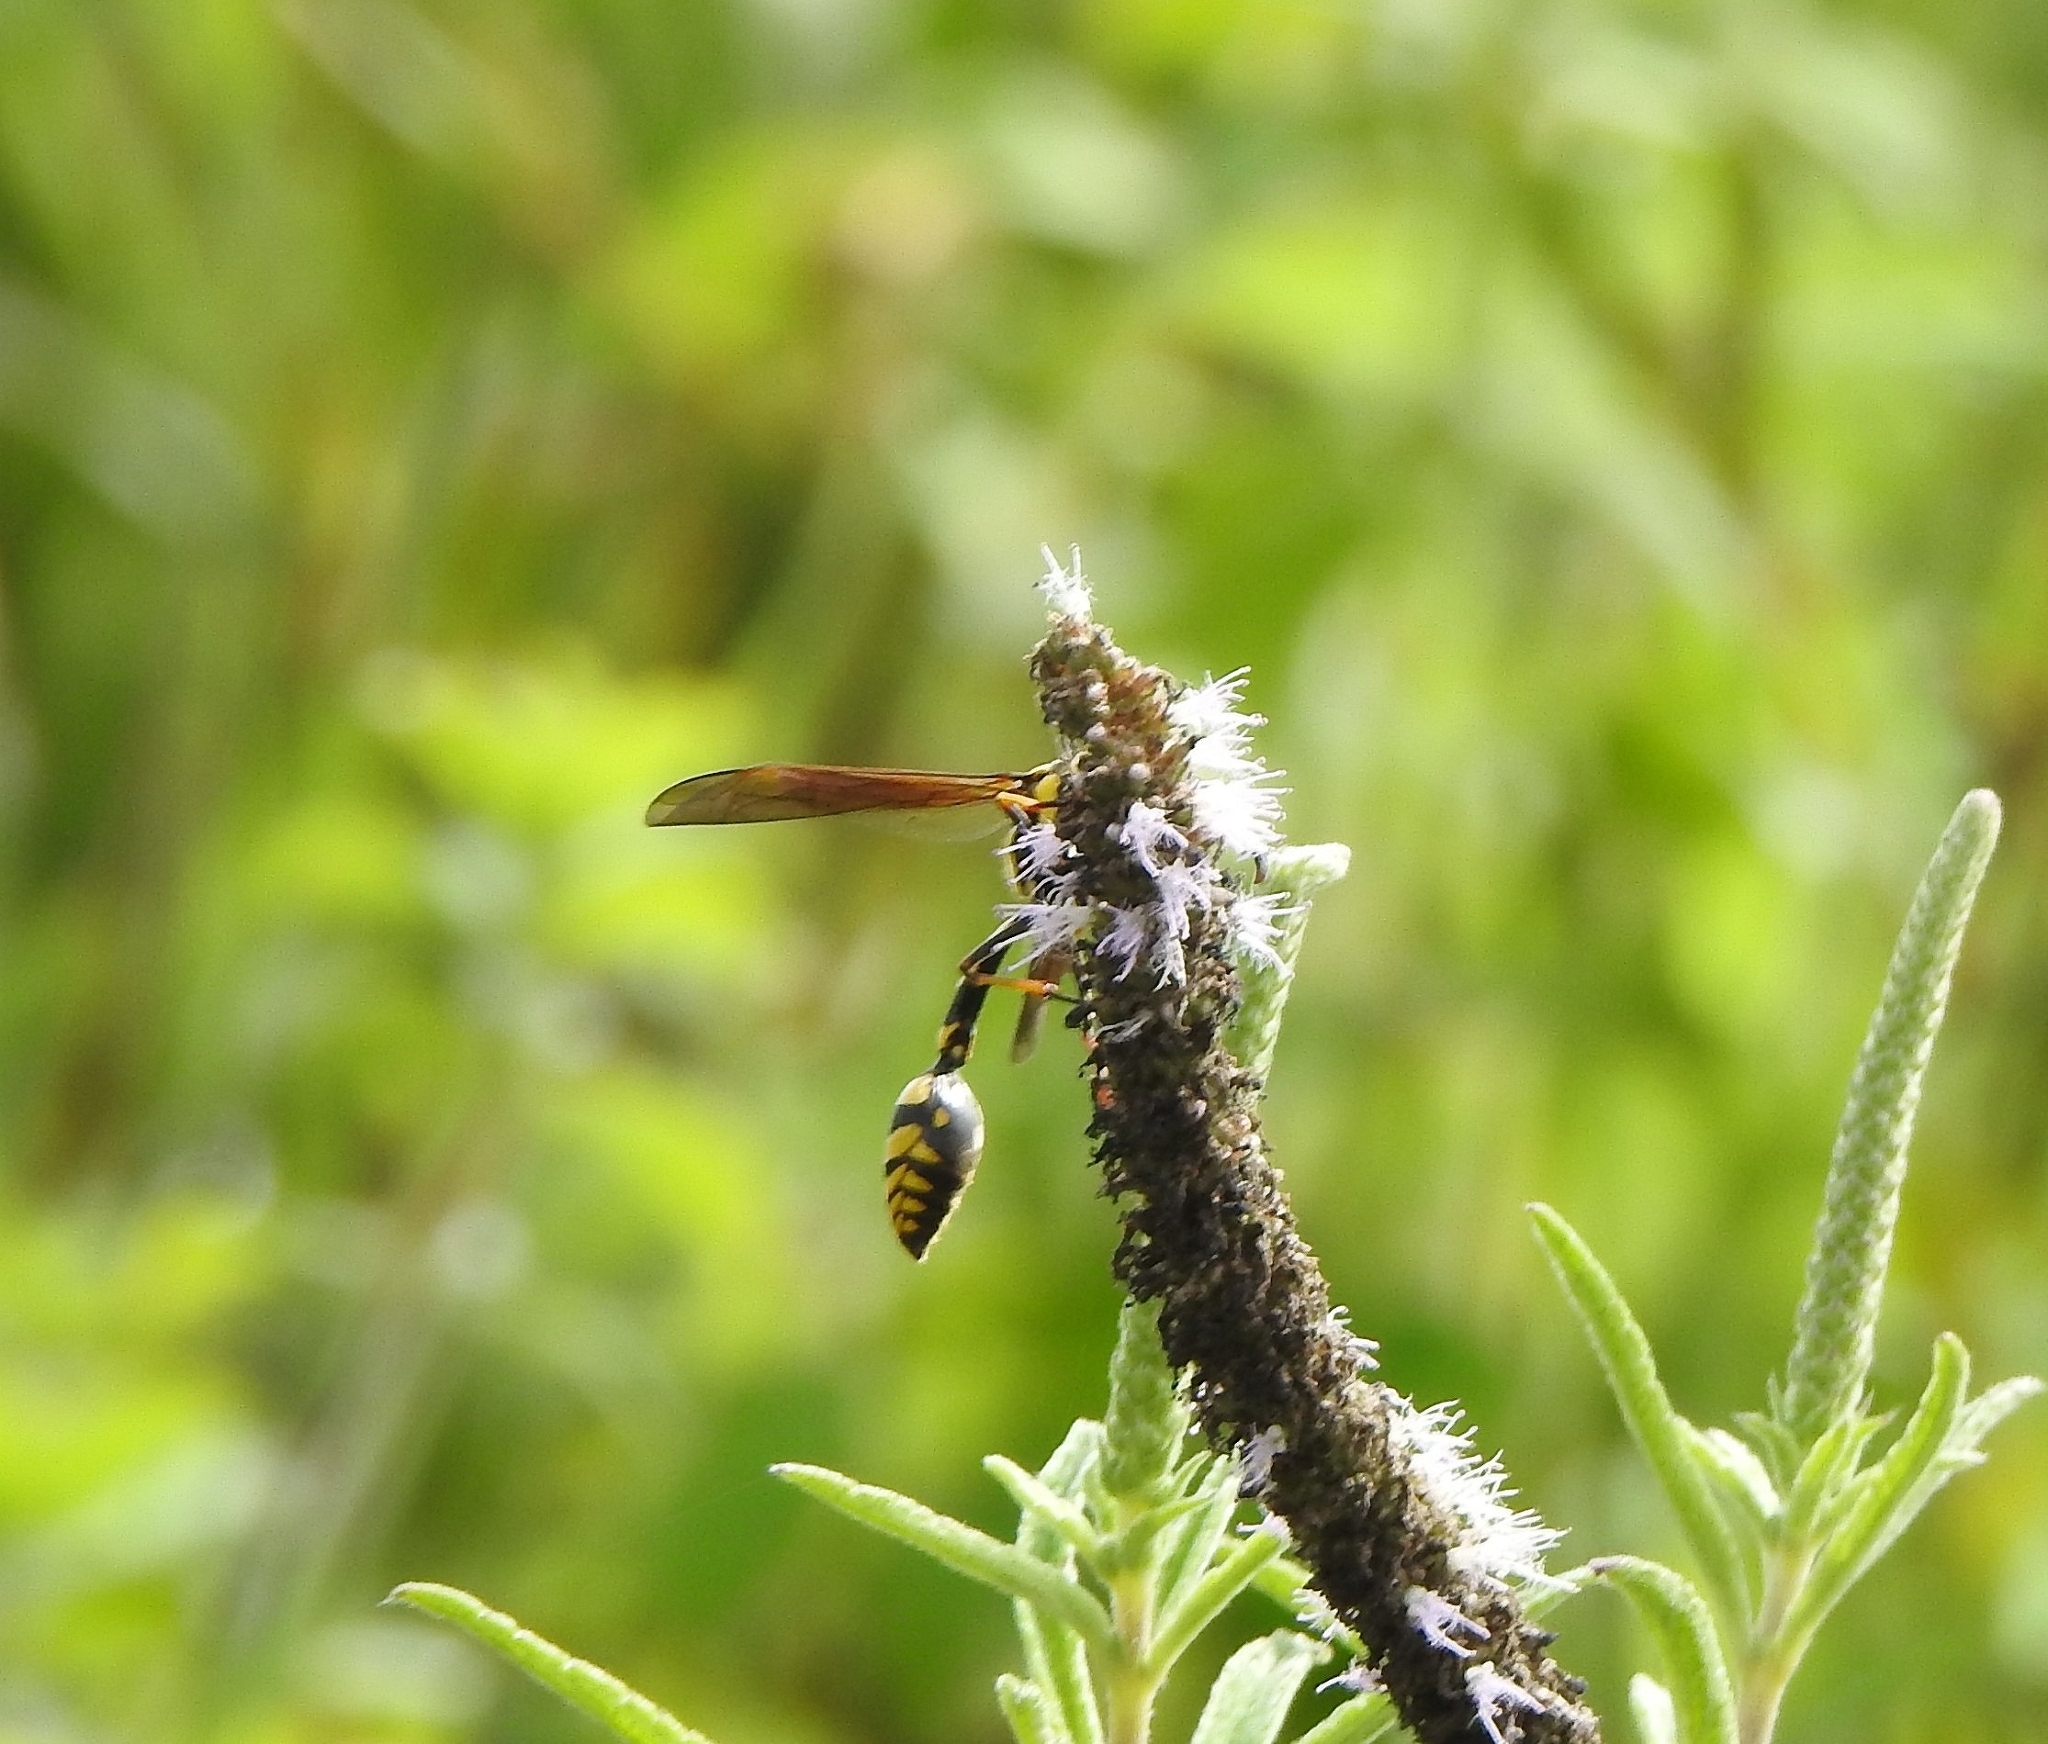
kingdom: Animalia
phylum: Arthropoda
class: Insecta
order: Hymenoptera
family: Eumenidae
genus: Phimenes
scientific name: Phimenes flavopictus
